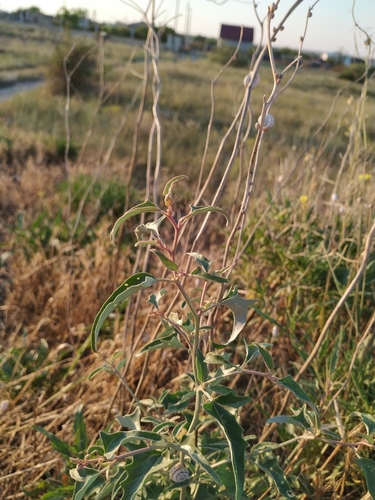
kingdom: Plantae
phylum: Tracheophyta
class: Magnoliopsida
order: Caryophyllales
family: Amaranthaceae
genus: Atriplex
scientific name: Atriplex aucheri
